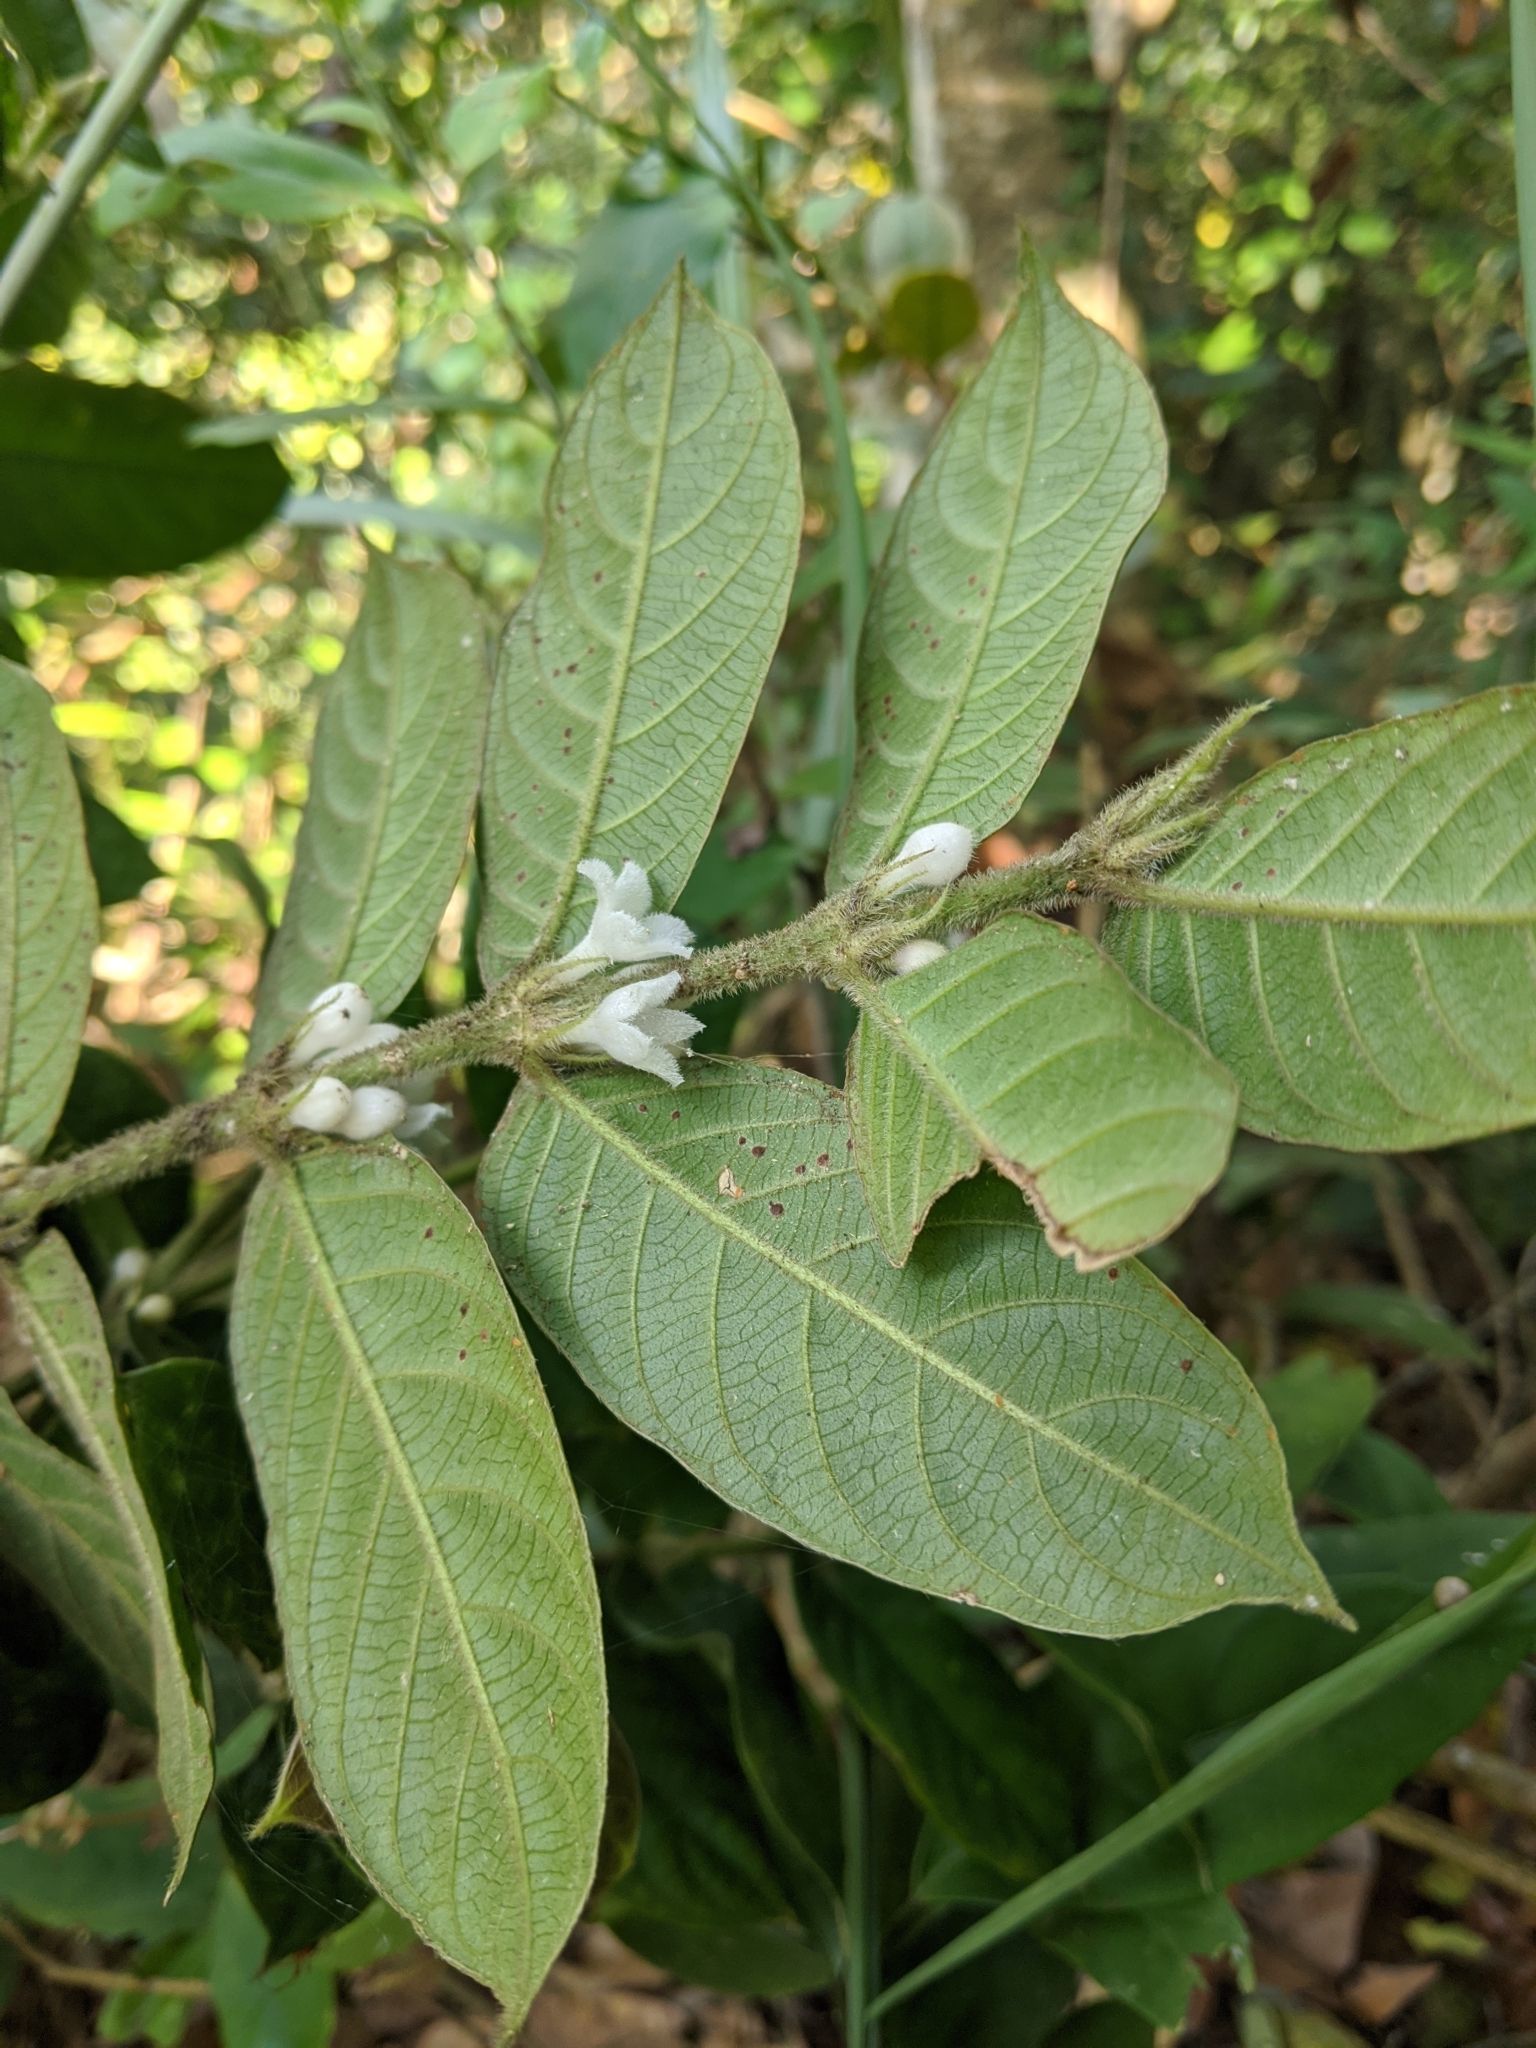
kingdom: Plantae
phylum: Tracheophyta
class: Magnoliopsida
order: Gentianales
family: Rubiaceae
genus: Lasianthus
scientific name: Lasianthus attenuatus
